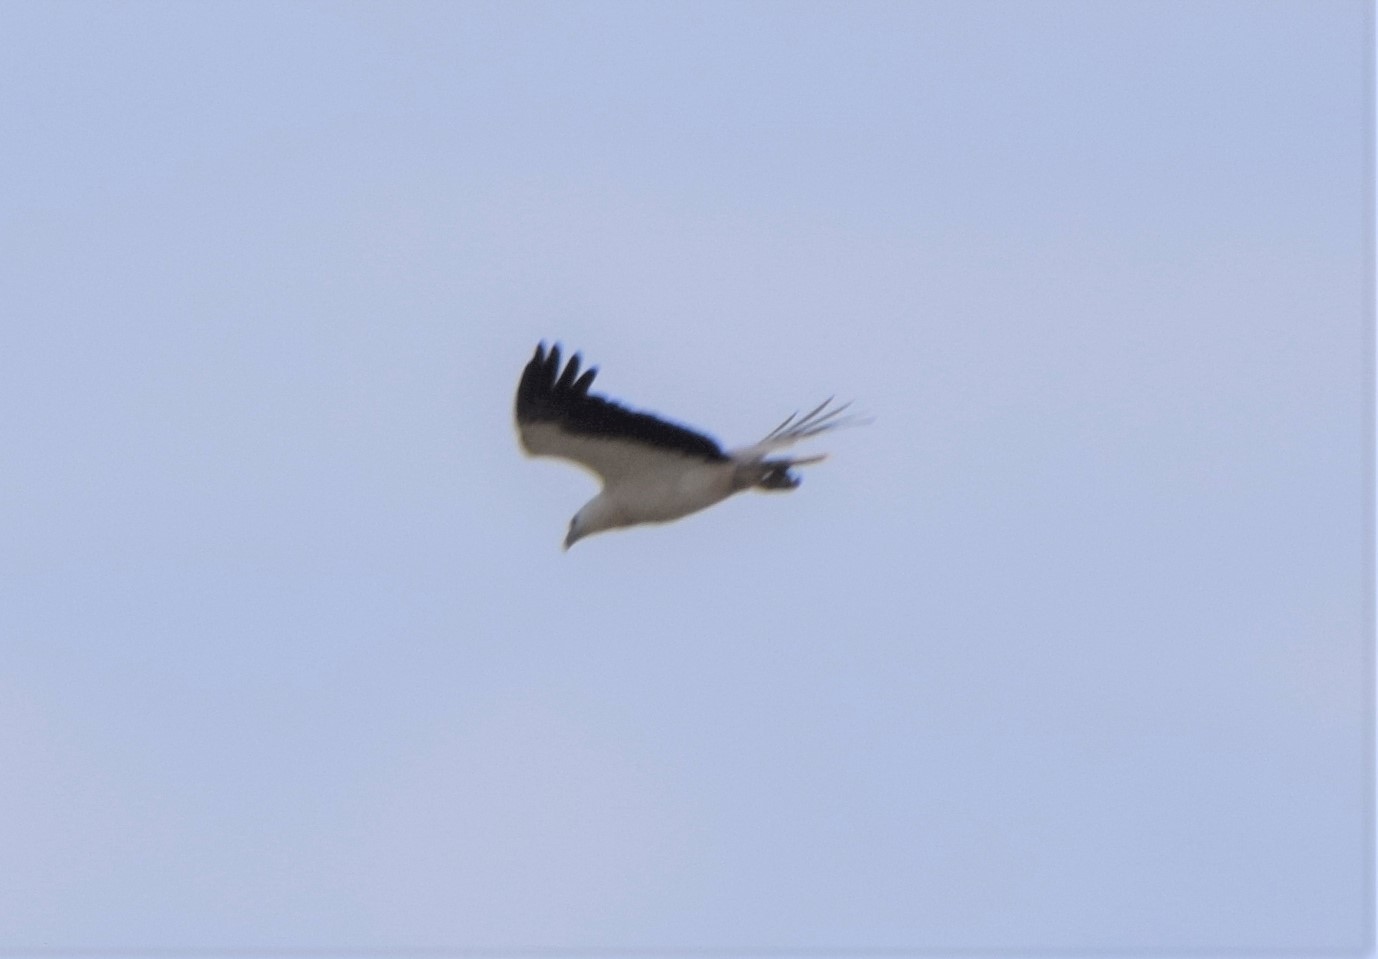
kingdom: Animalia
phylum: Chordata
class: Aves
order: Accipitriformes
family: Accipitridae
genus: Haliaeetus
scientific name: Haliaeetus leucogaster
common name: White-bellied sea eagle
